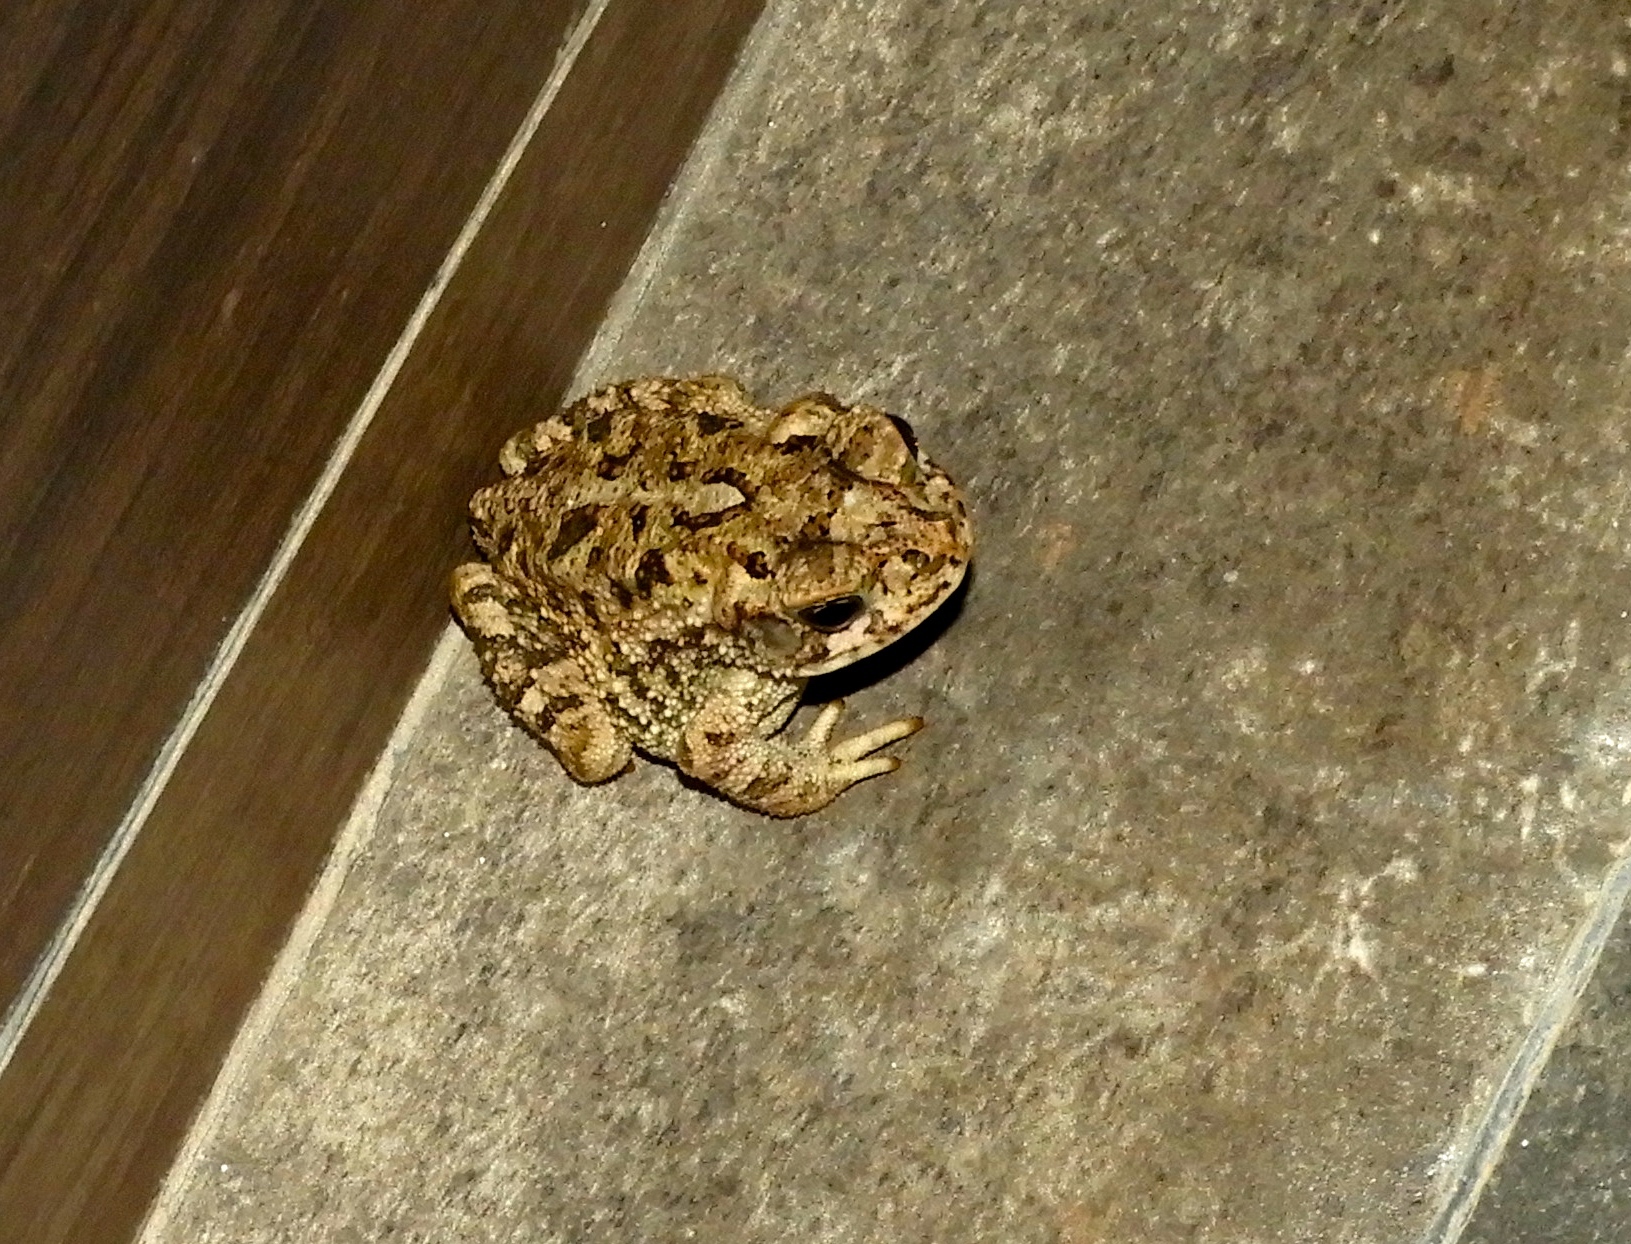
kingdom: Animalia
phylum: Chordata
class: Amphibia
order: Anura
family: Bufonidae
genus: Incilius
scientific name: Incilius mazatlanensis
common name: Sinaloa toad
